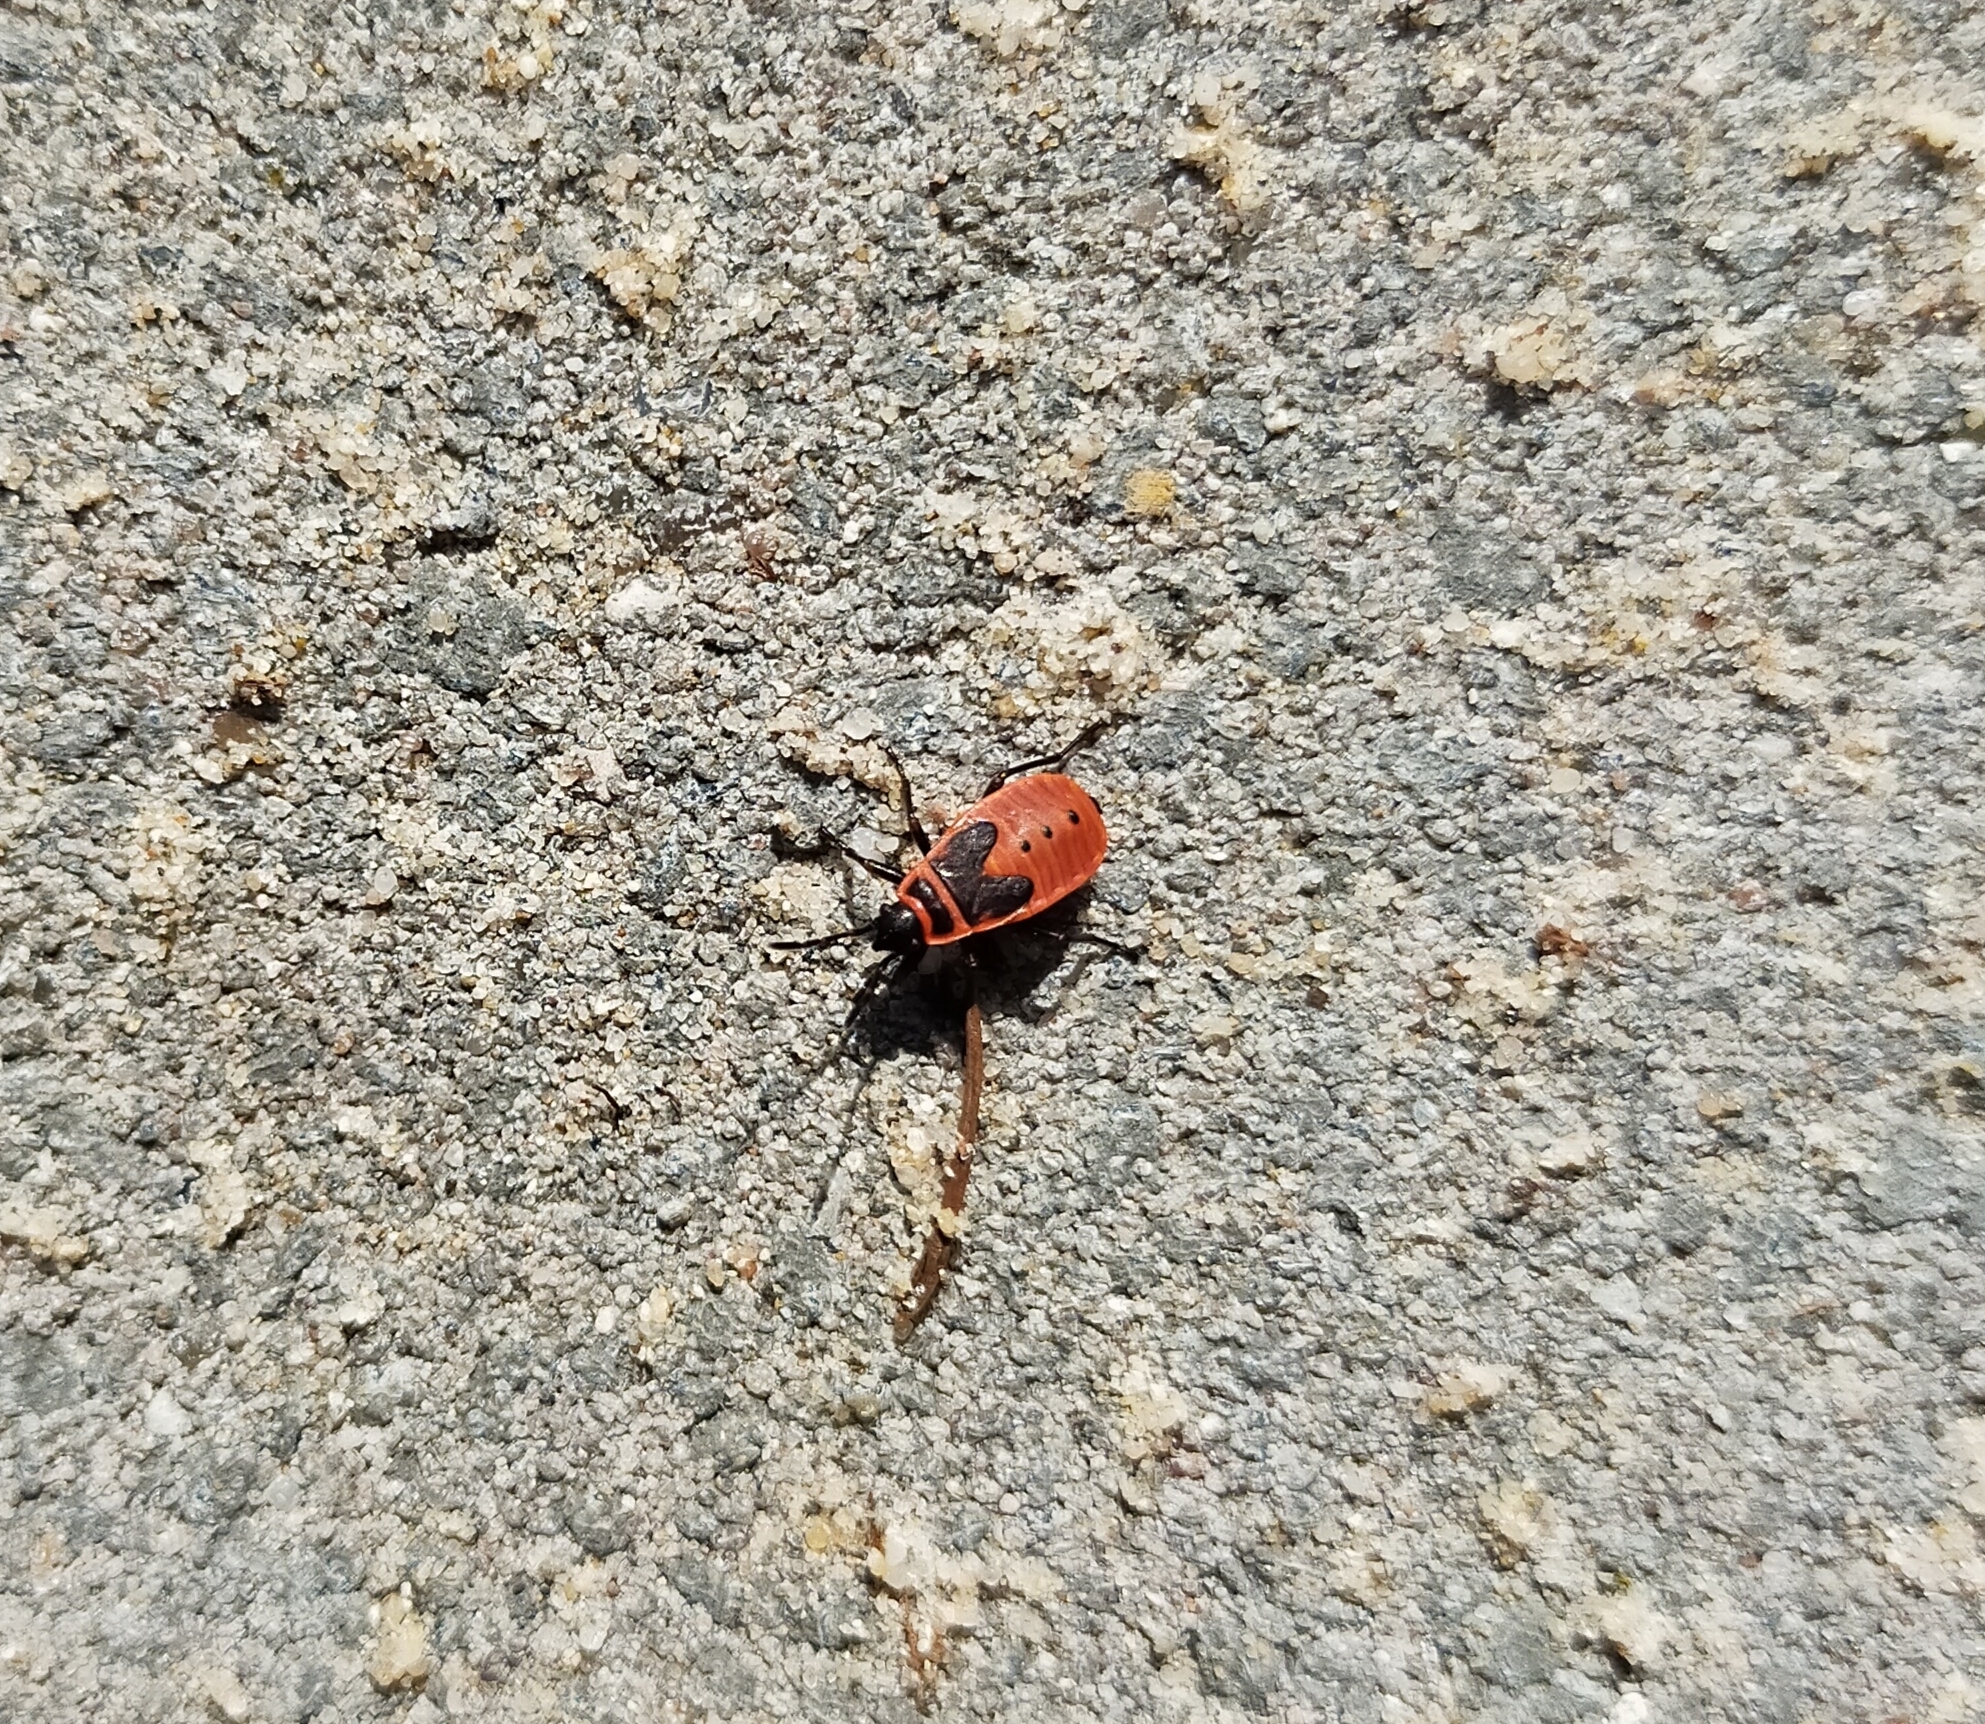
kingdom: Animalia
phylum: Arthropoda
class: Insecta
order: Hemiptera
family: Pyrrhocoridae
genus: Pyrrhocoris
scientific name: Pyrrhocoris apterus
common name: Firebug
